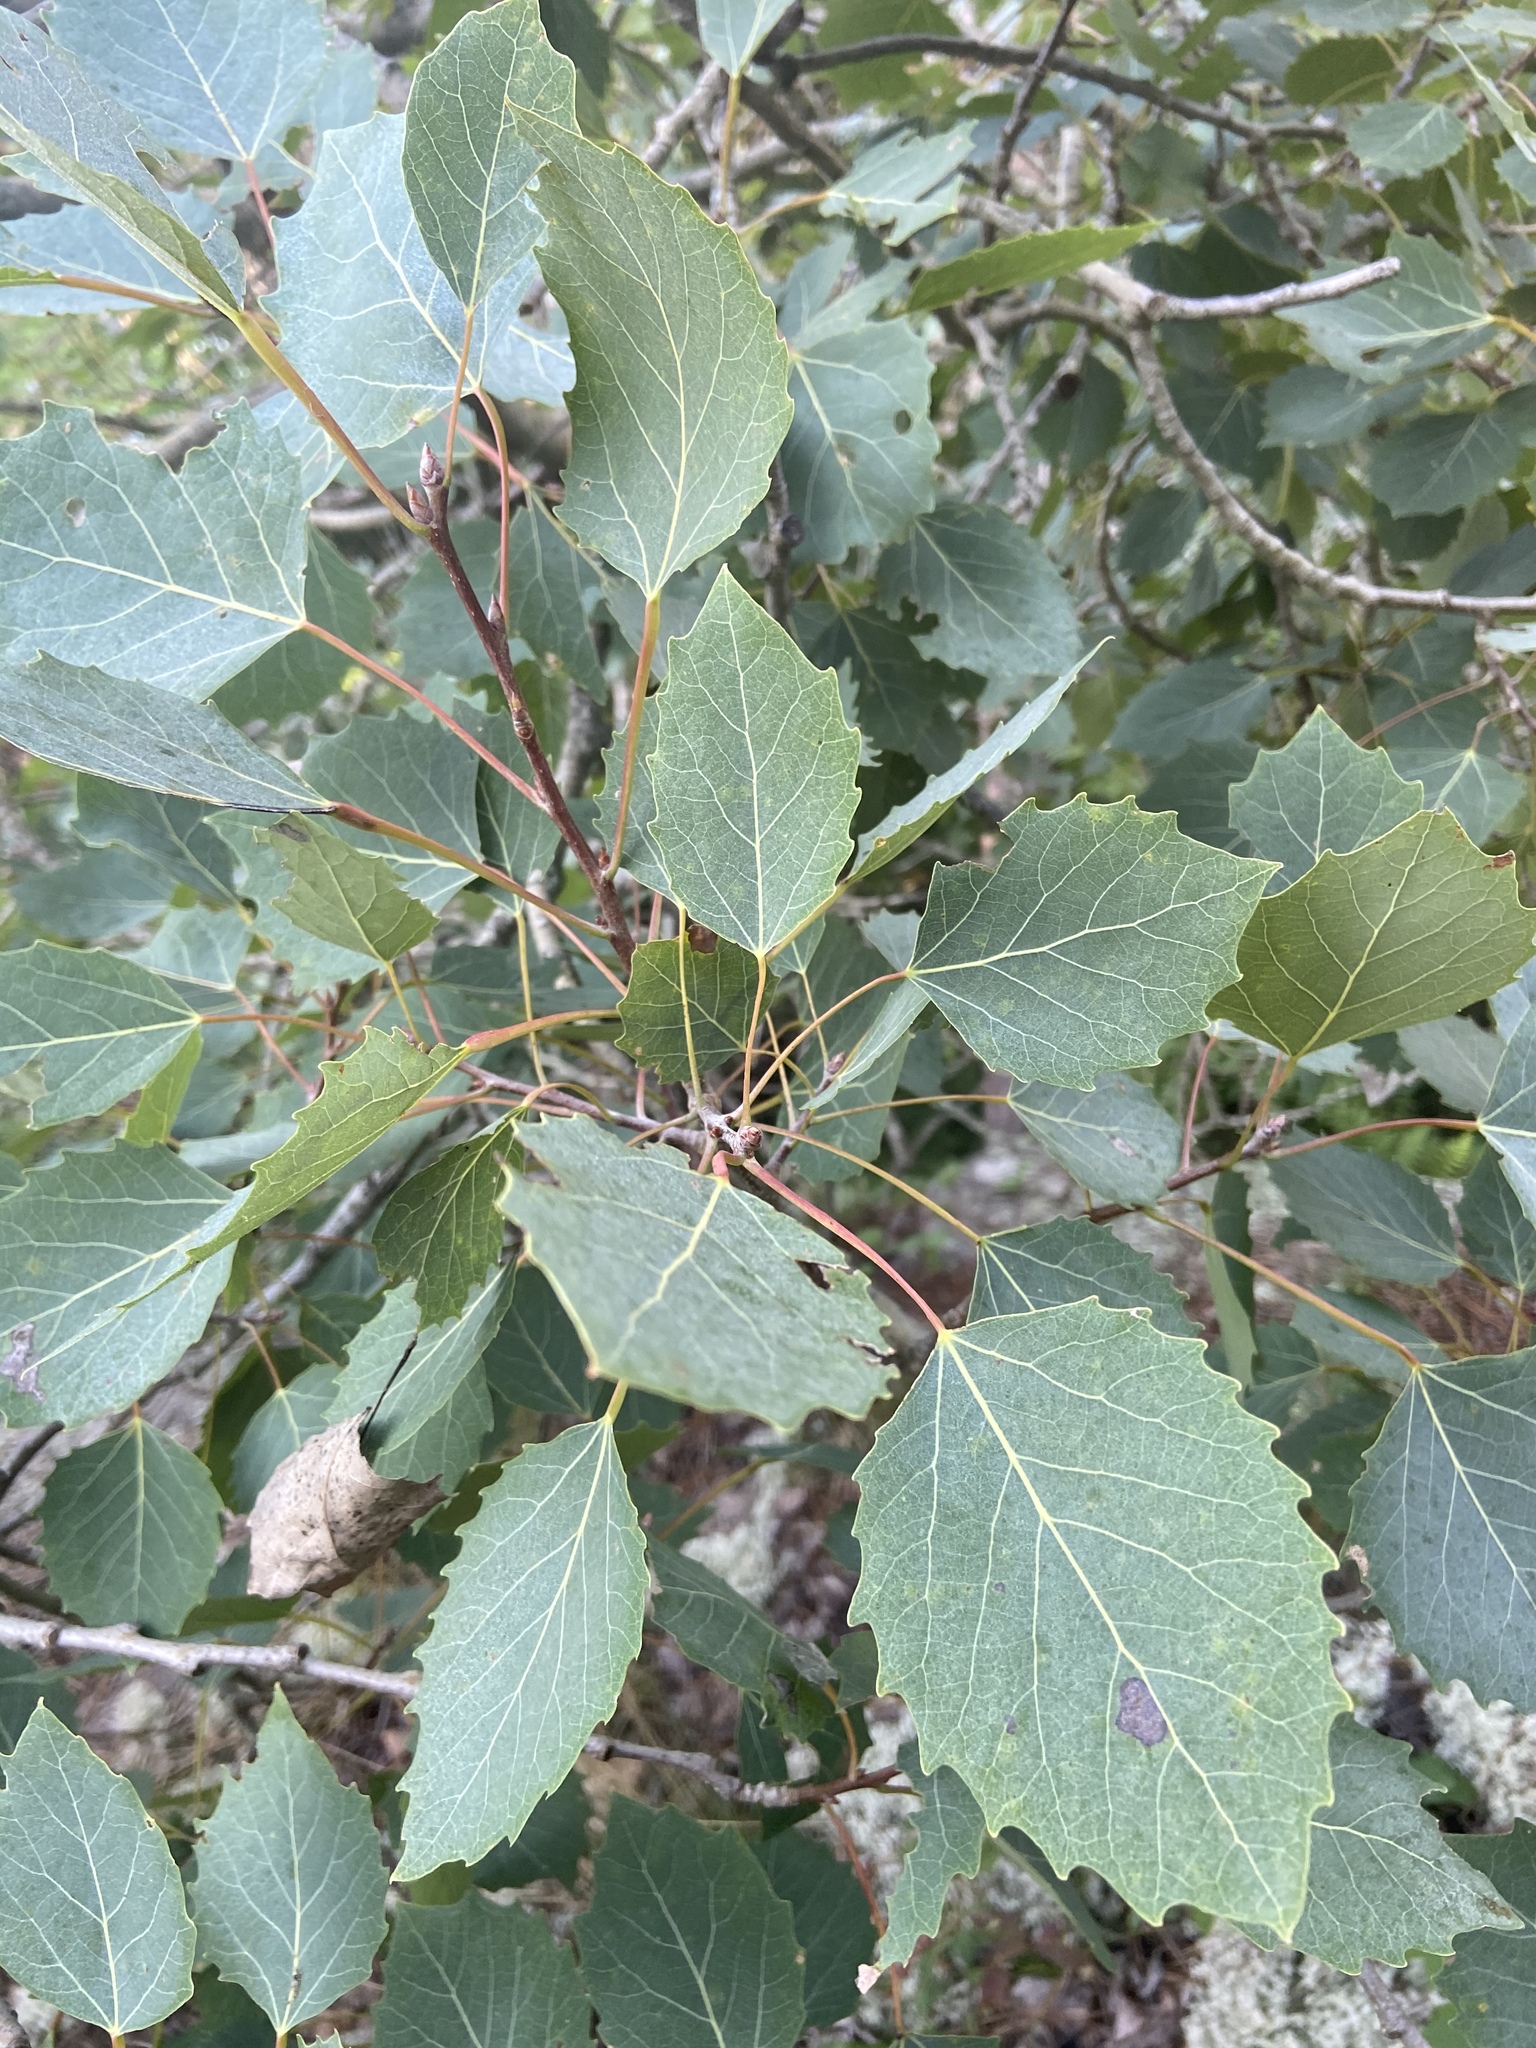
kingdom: Plantae
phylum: Tracheophyta
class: Magnoliopsida
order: Malpighiales
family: Salicaceae
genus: Populus
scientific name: Populus grandidentata
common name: Bigtooth aspen
